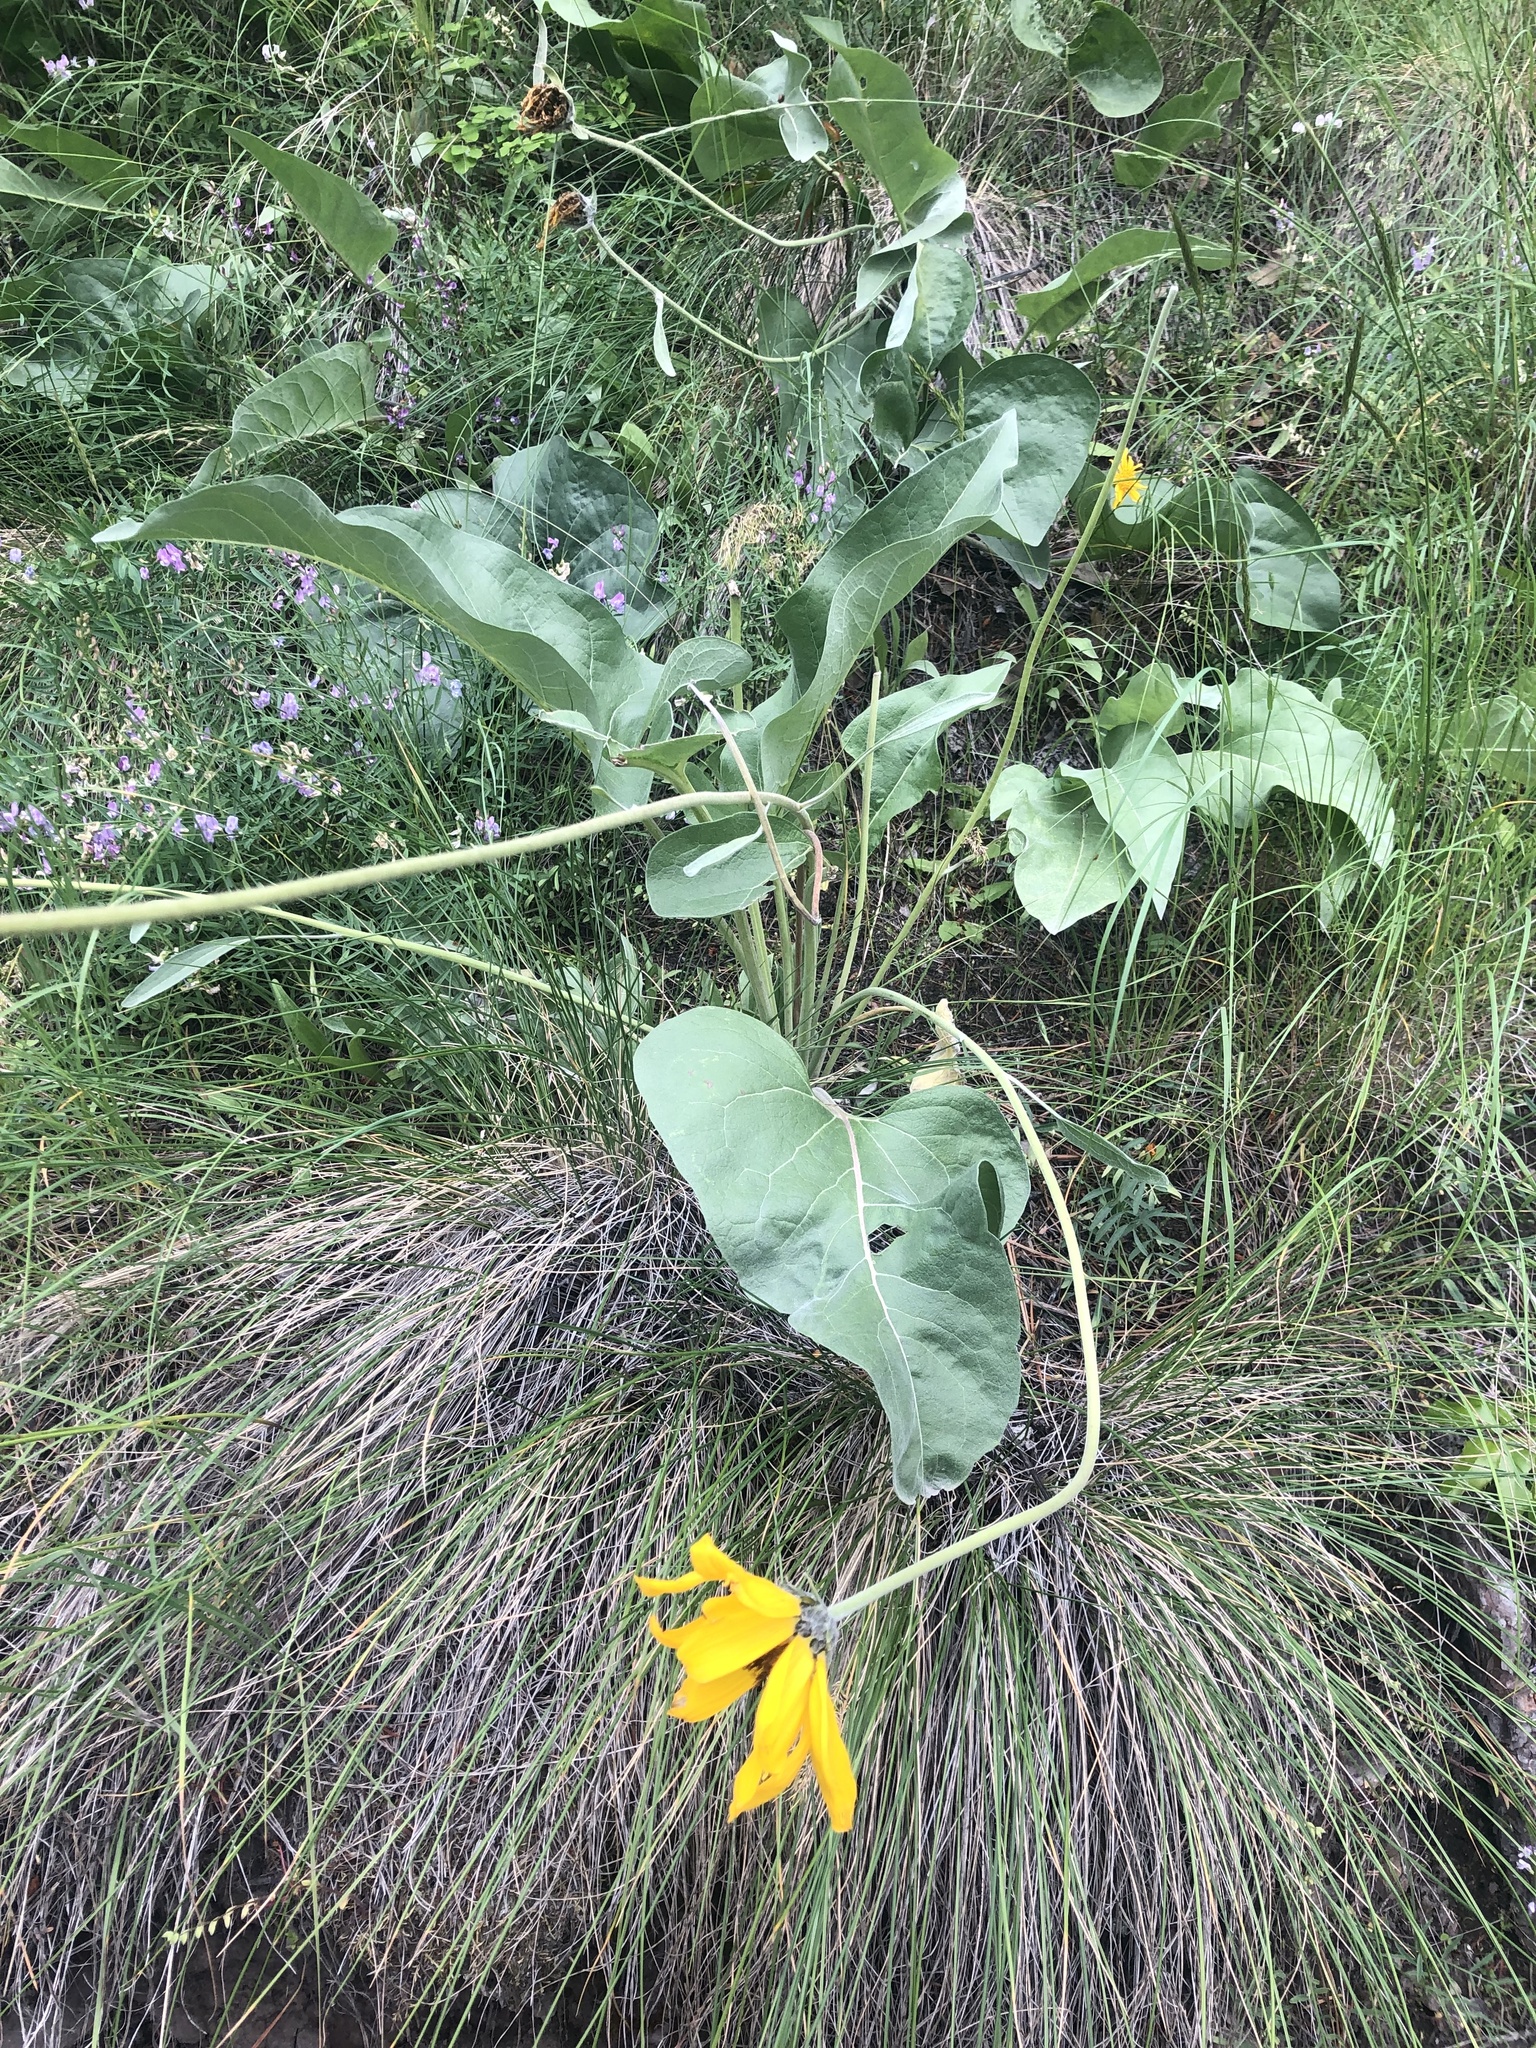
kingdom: Plantae
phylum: Tracheophyta
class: Magnoliopsida
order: Asterales
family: Asteraceae
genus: Wyethia
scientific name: Wyethia sagittata
